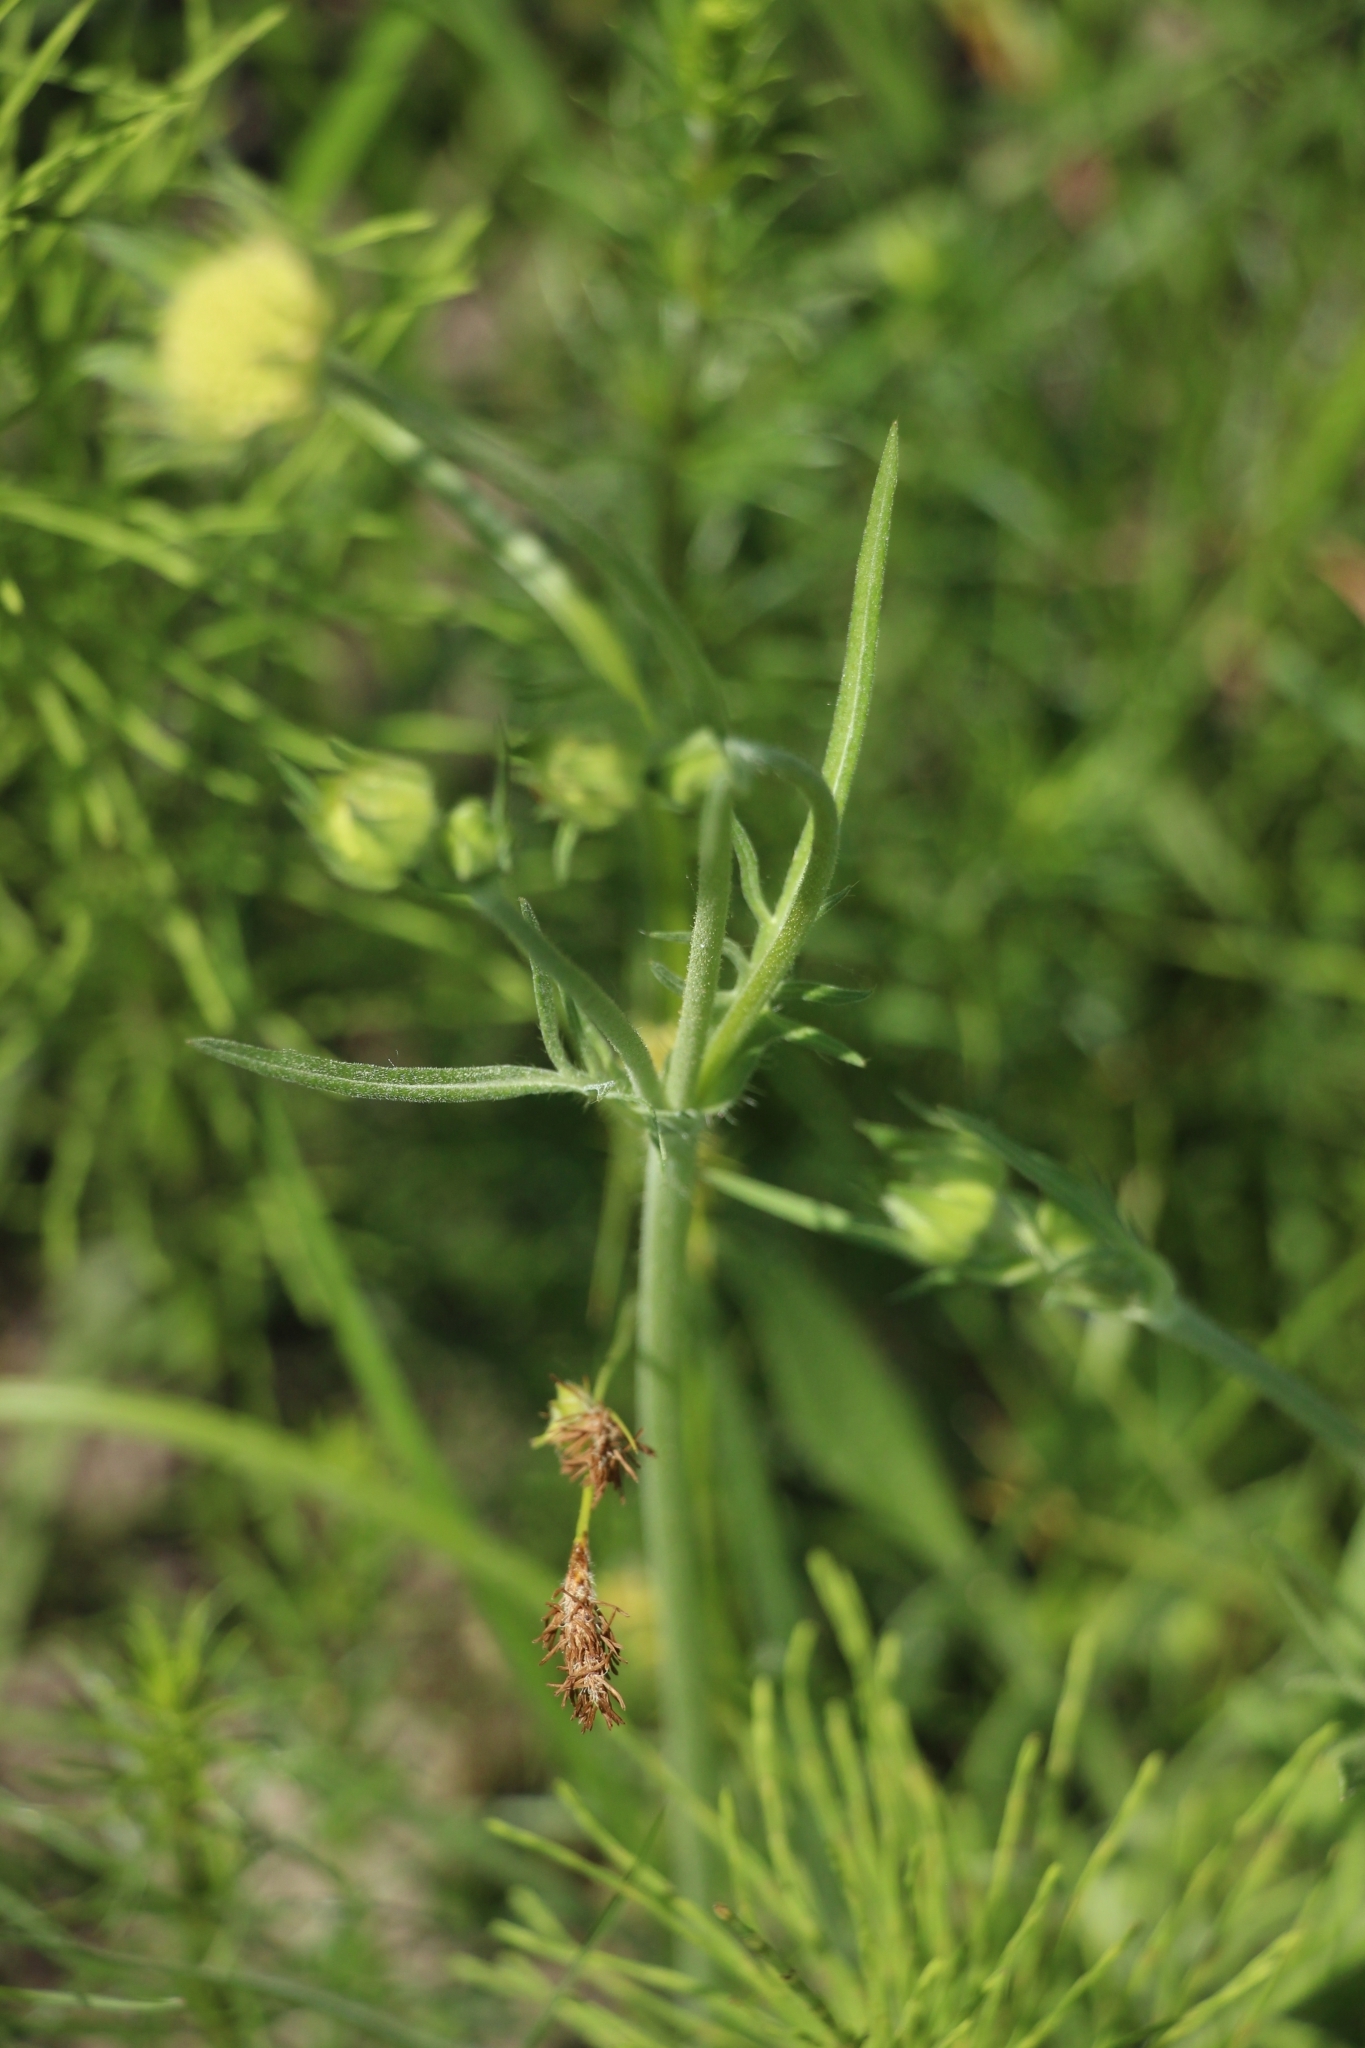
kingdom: Plantae
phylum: Tracheophyta
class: Magnoliopsida
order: Dipsacales
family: Caprifoliaceae
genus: Knautia
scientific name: Knautia arvensis
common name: Field scabiosa
